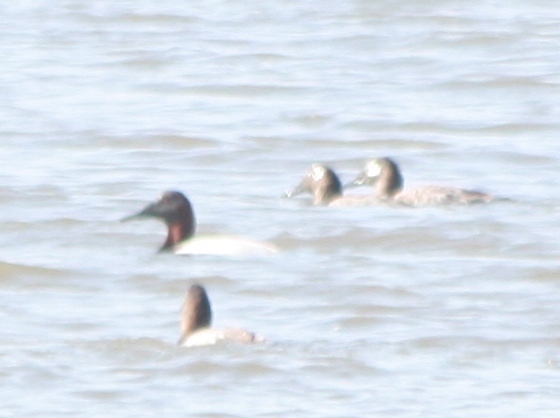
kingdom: Animalia
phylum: Chordata
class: Aves
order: Anseriformes
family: Anatidae
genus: Aythya
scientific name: Aythya valisineria
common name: Canvasback
